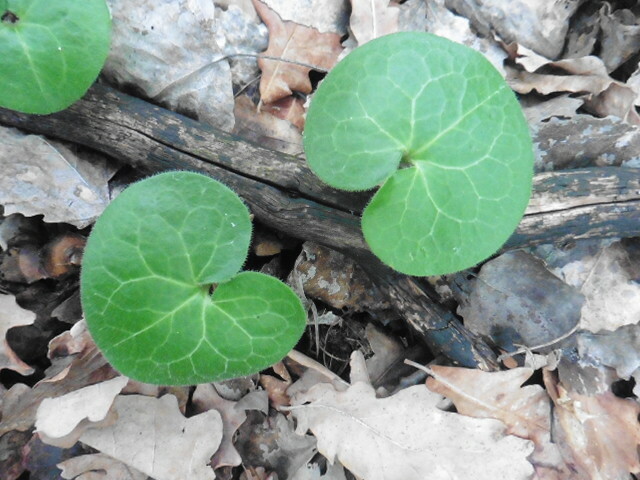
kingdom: Plantae
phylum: Tracheophyta
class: Magnoliopsida
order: Piperales
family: Aristolochiaceae
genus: Asarum
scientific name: Asarum europaeum
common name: Asarabacca
